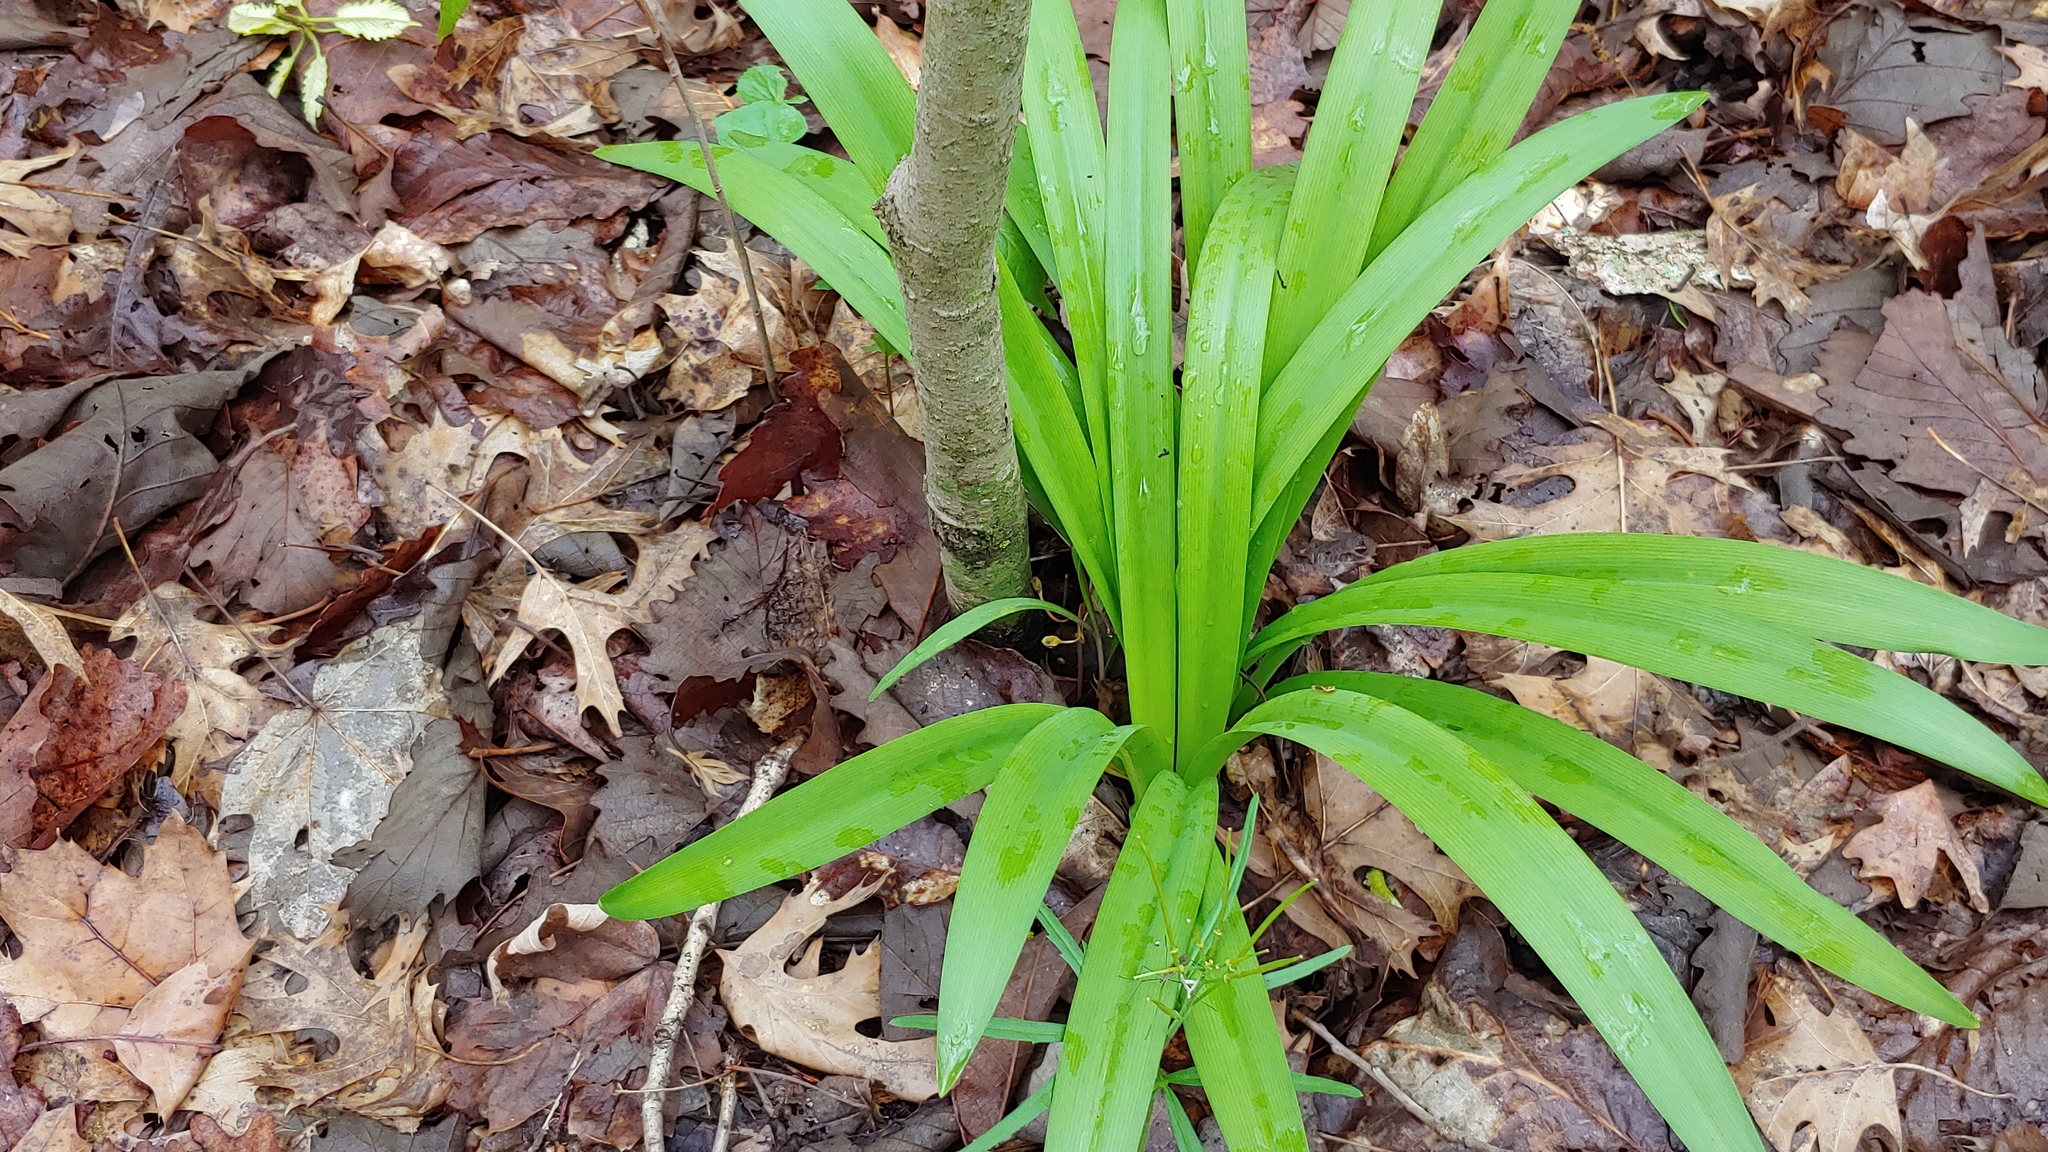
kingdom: Plantae
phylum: Tracheophyta
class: Liliopsida
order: Asparagales
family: Amaryllidaceae
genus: Hymenocallis
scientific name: Hymenocallis occidentalis
